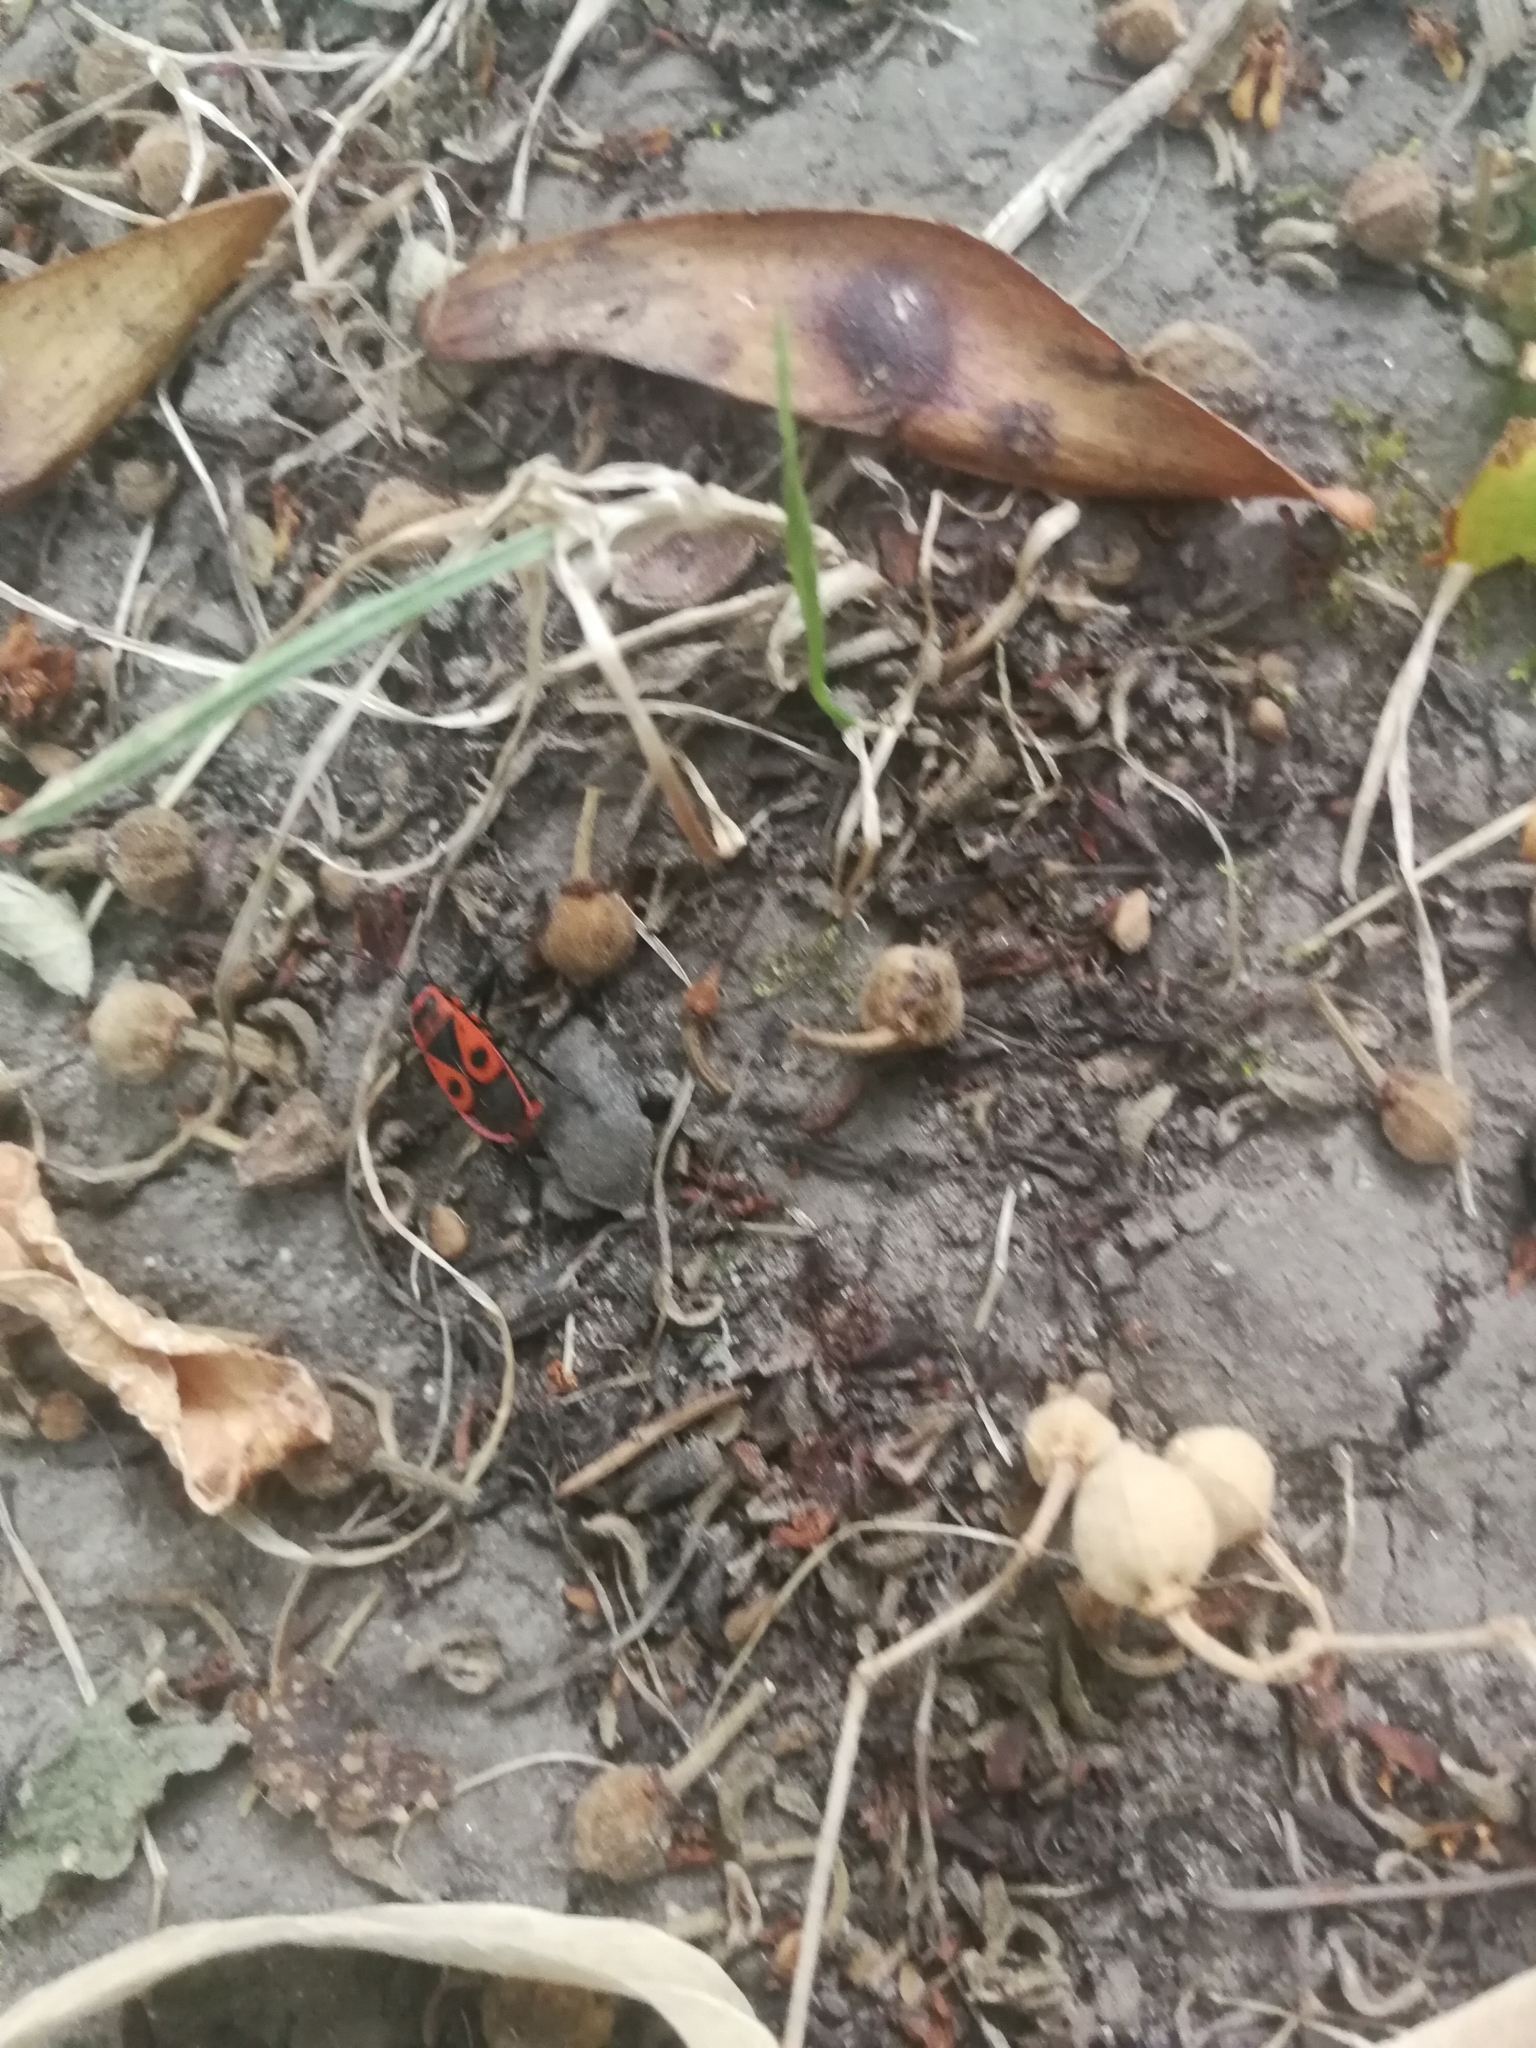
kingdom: Animalia
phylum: Arthropoda
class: Insecta
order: Hemiptera
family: Pyrrhocoridae
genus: Pyrrhocoris
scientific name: Pyrrhocoris apterus
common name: Firebug
